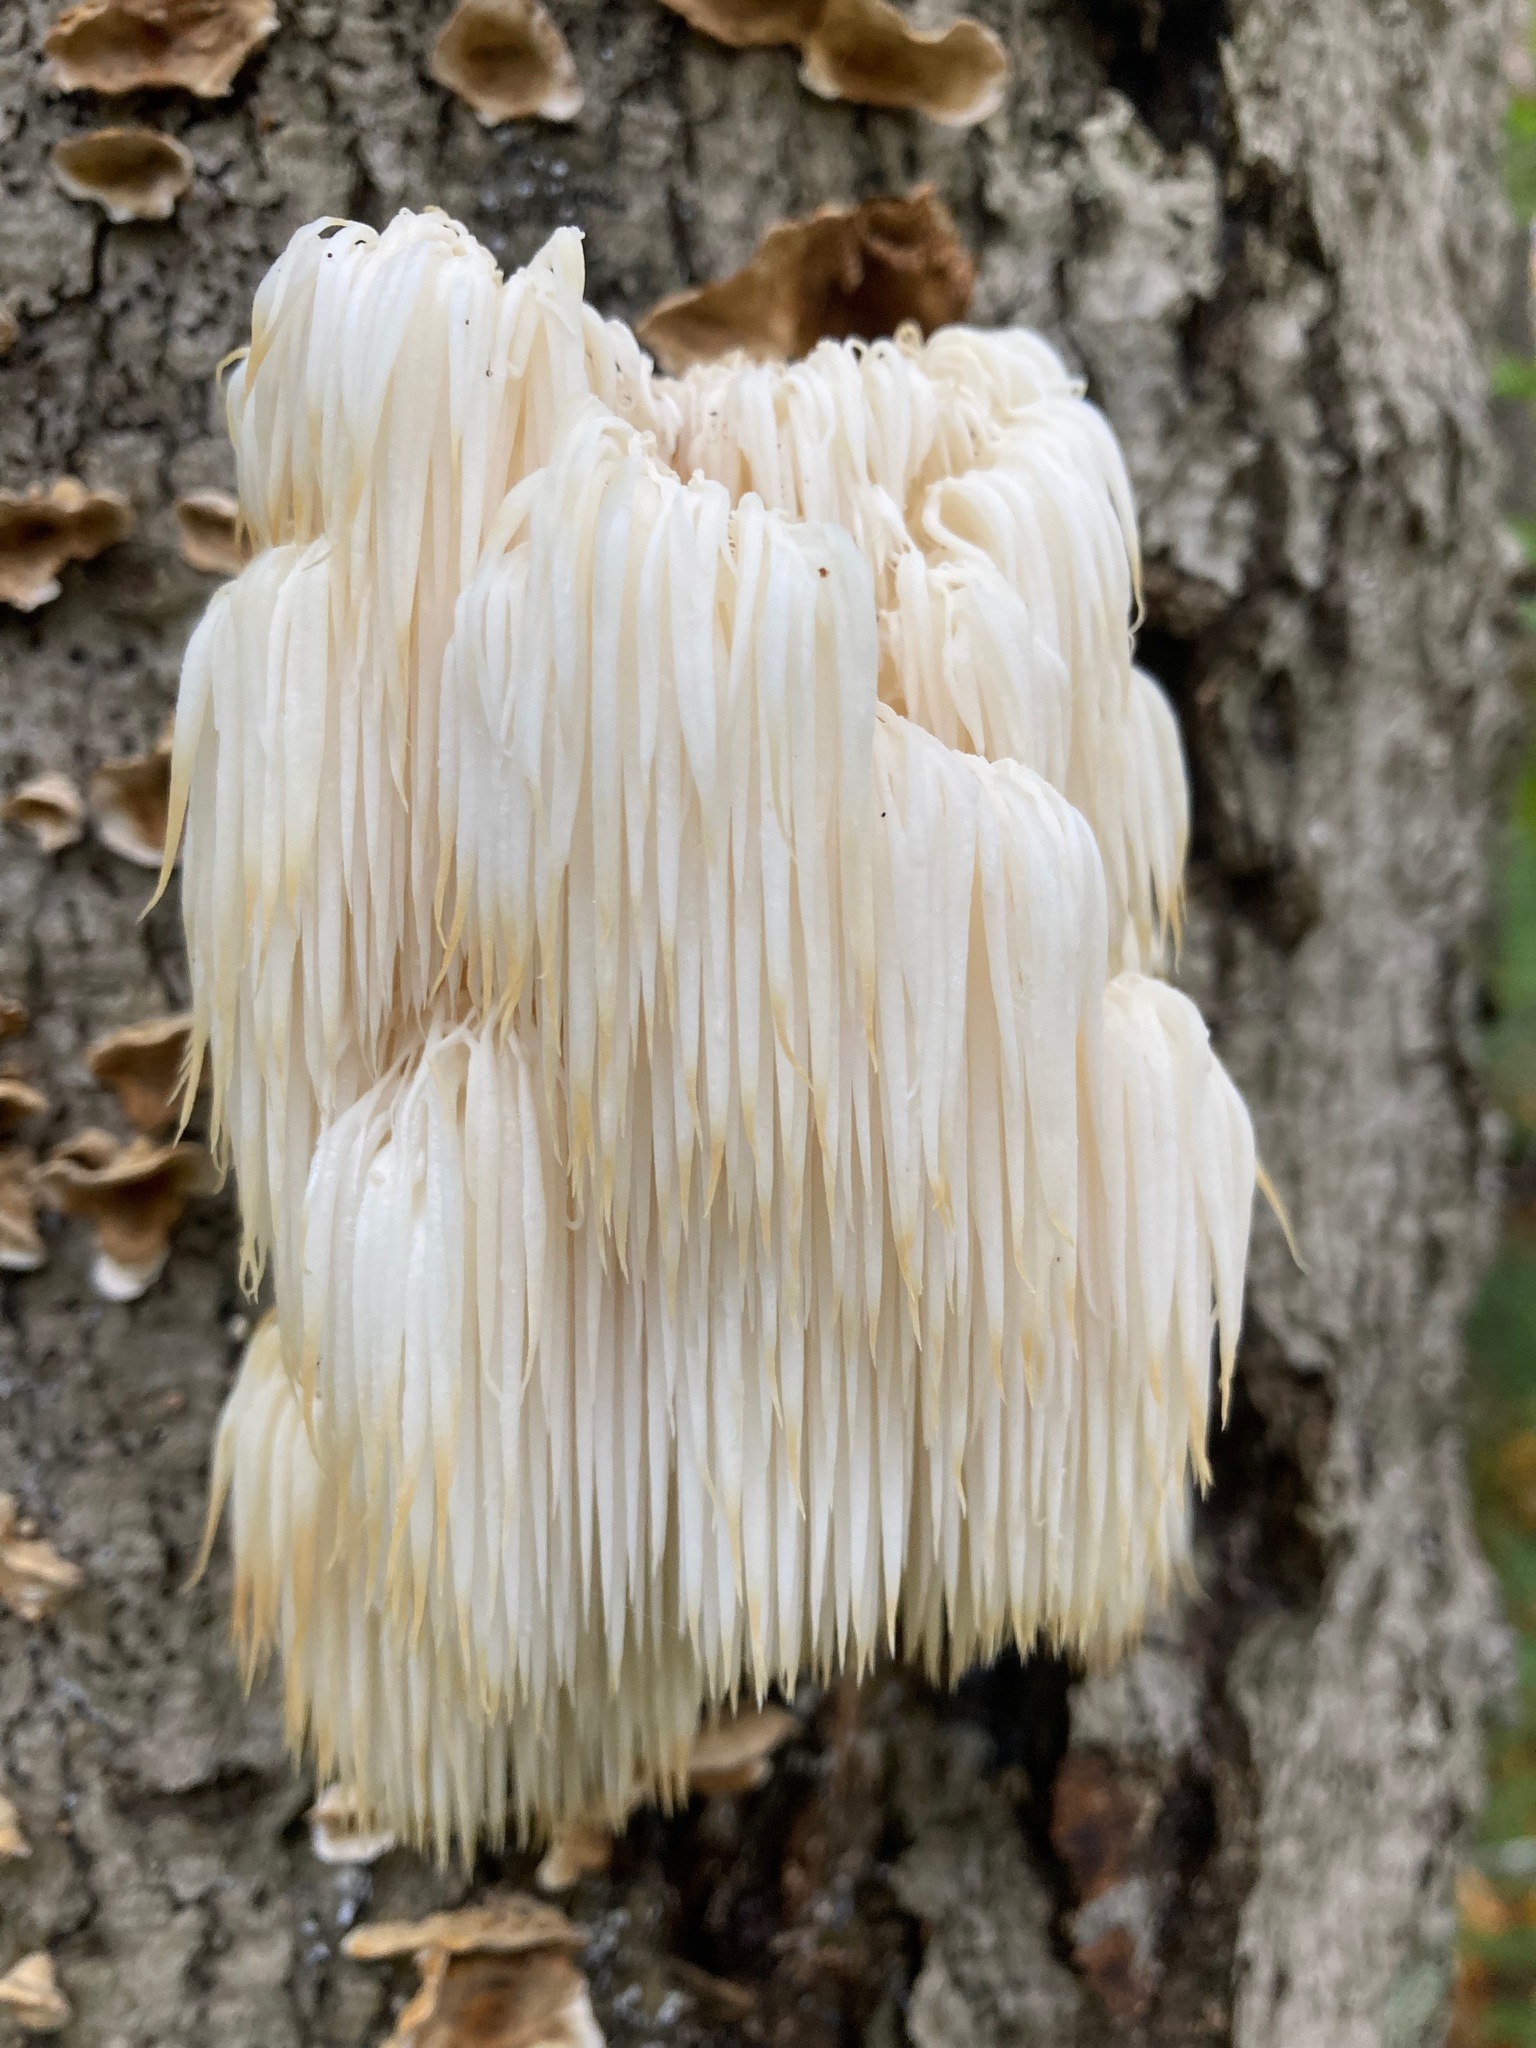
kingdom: Fungi
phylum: Basidiomycota
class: Agaricomycetes
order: Russulales
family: Hericiaceae
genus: Hericium
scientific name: Hericium americanum
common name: Bear's head tooth
